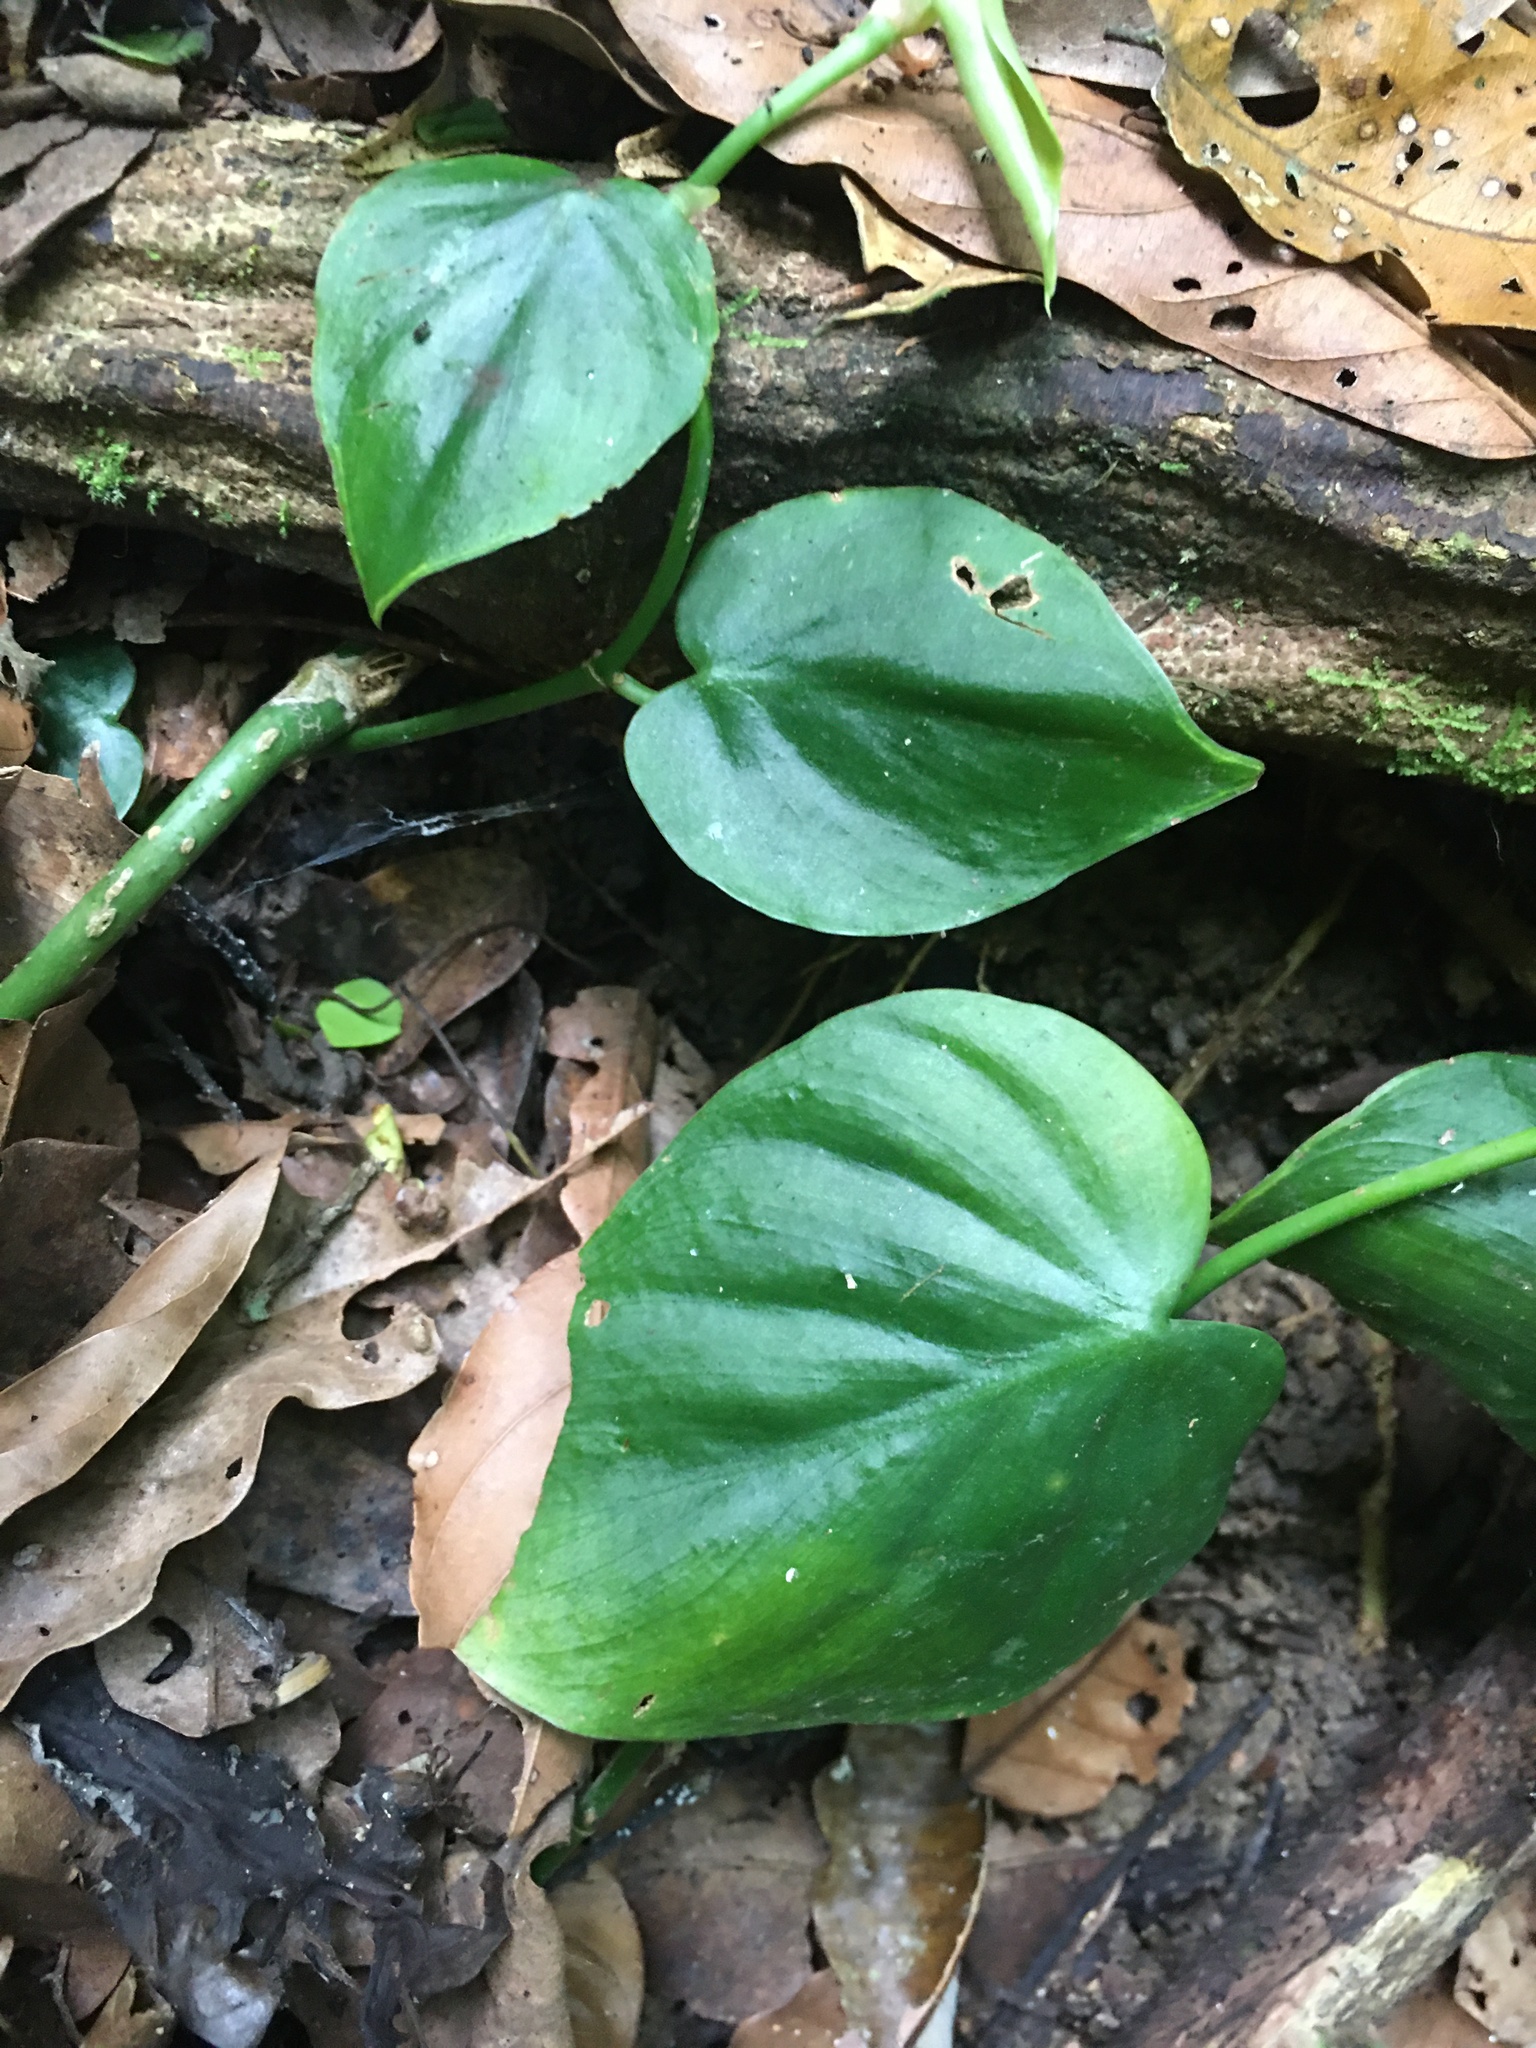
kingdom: Plantae
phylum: Tracheophyta
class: Liliopsida
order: Alismatales
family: Araceae
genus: Philodendron
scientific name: Philodendron hederaceum
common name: Vilevine
